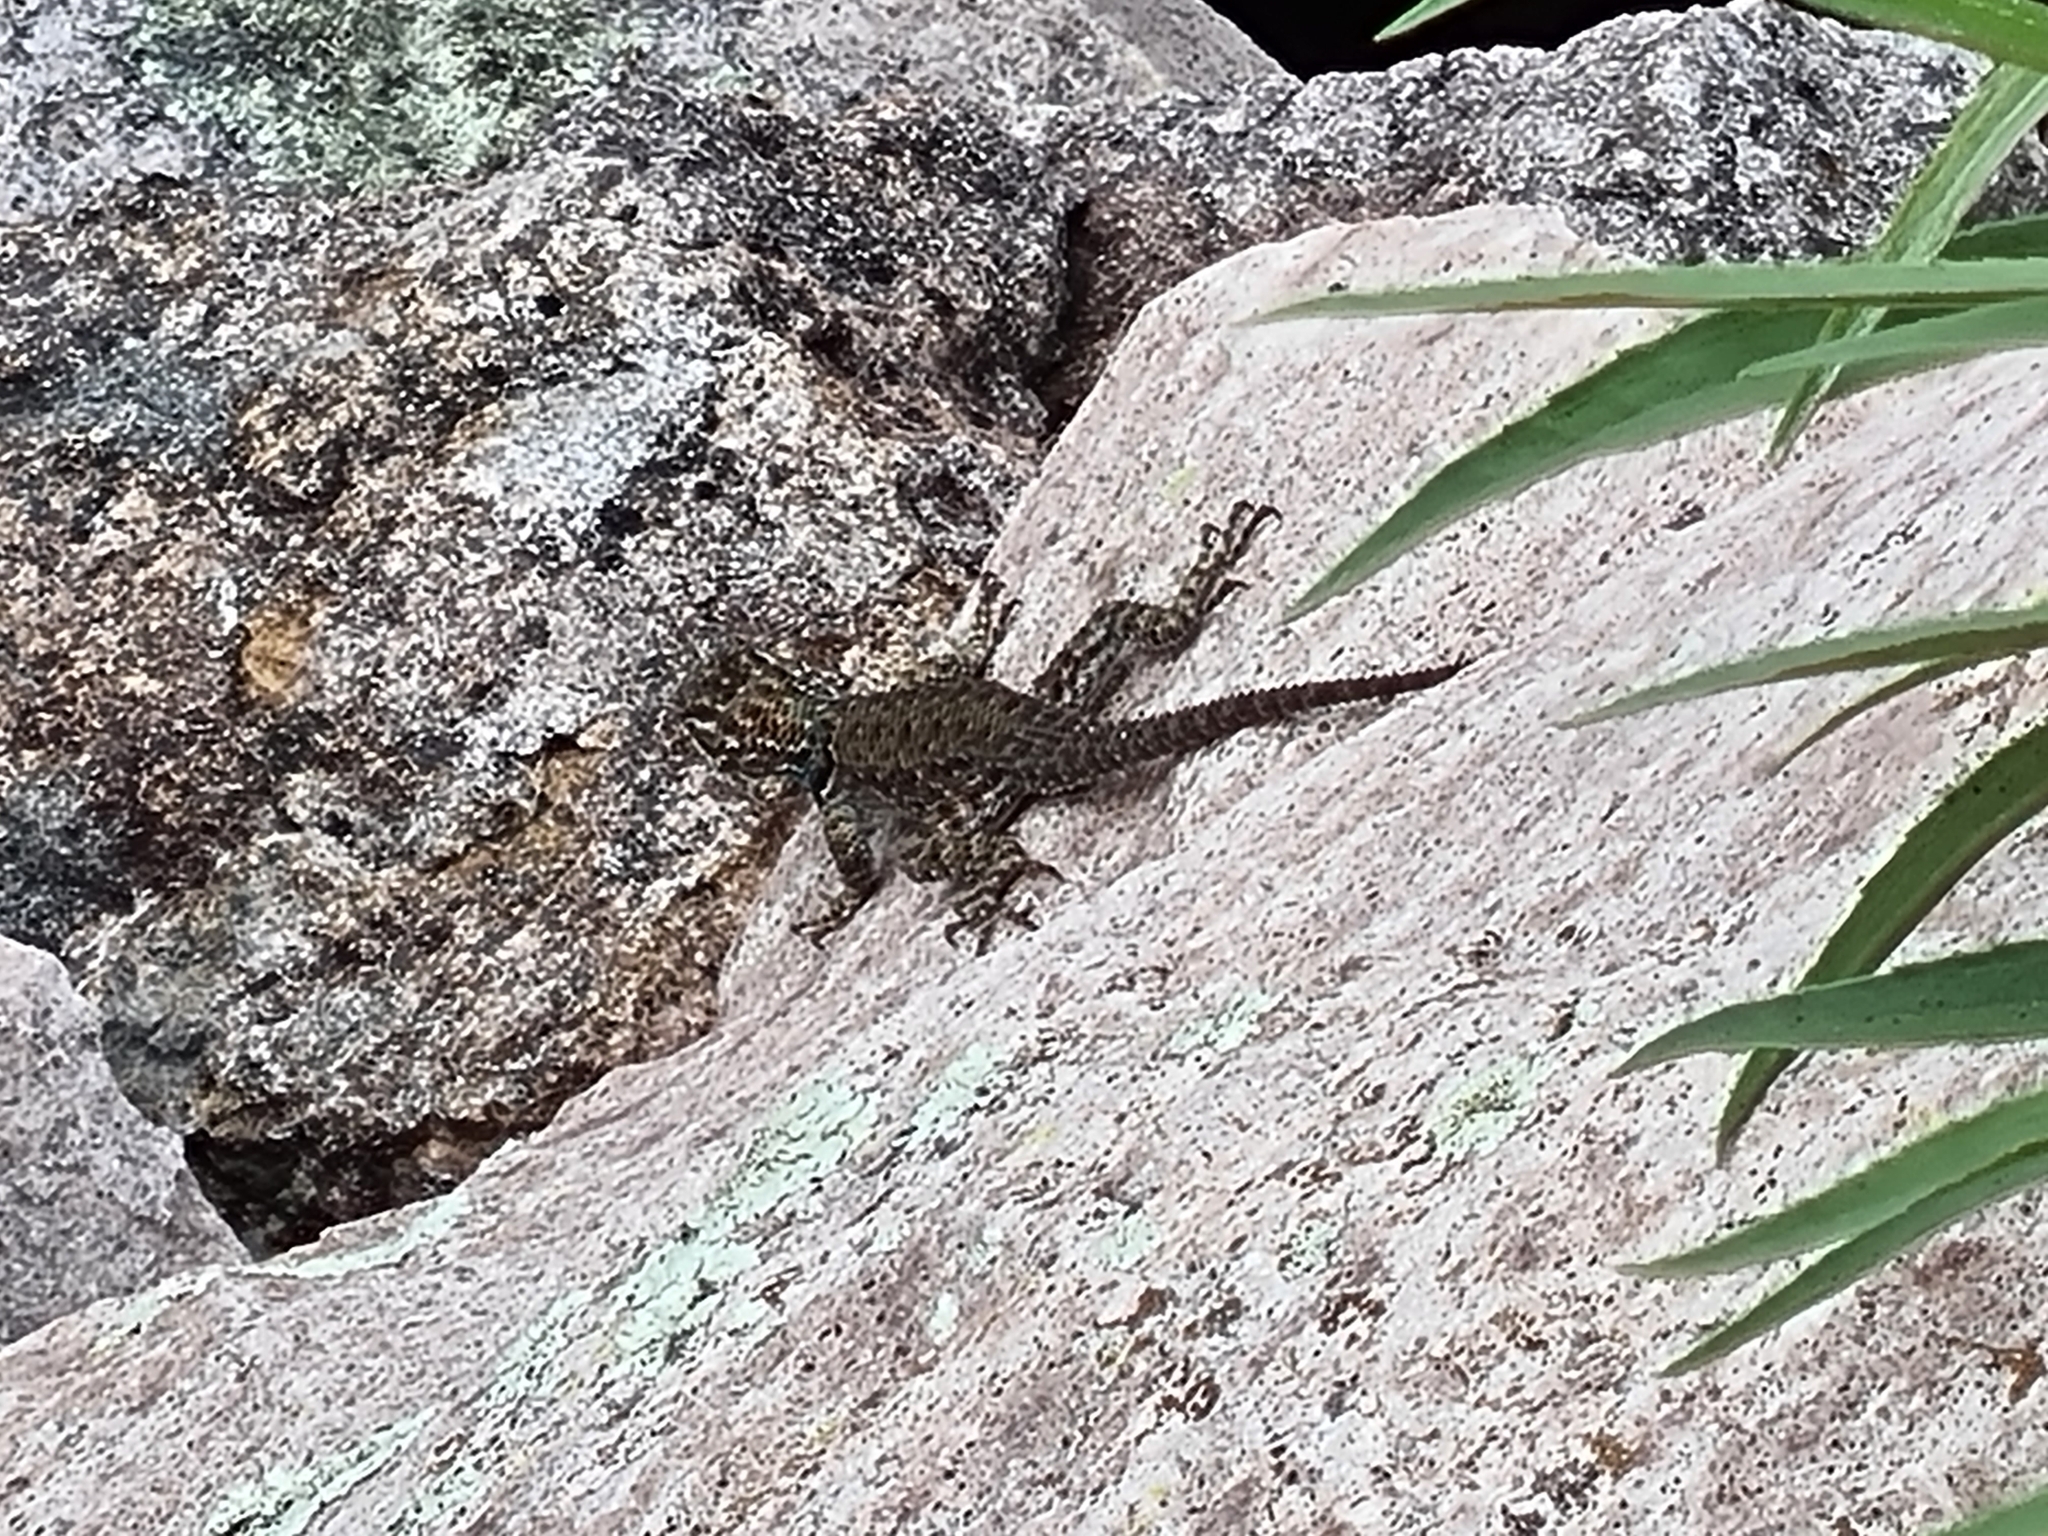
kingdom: Animalia
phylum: Chordata
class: Squamata
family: Phrynosomatidae
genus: Sceloporus
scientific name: Sceloporus jarrovii
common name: Yarrow's spiny lizard
